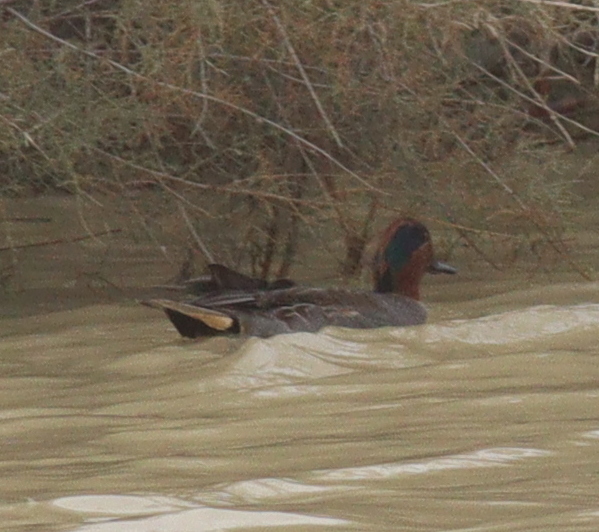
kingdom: Animalia
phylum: Chordata
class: Aves
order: Anseriformes
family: Anatidae
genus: Anas
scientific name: Anas crecca
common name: Eurasian teal
